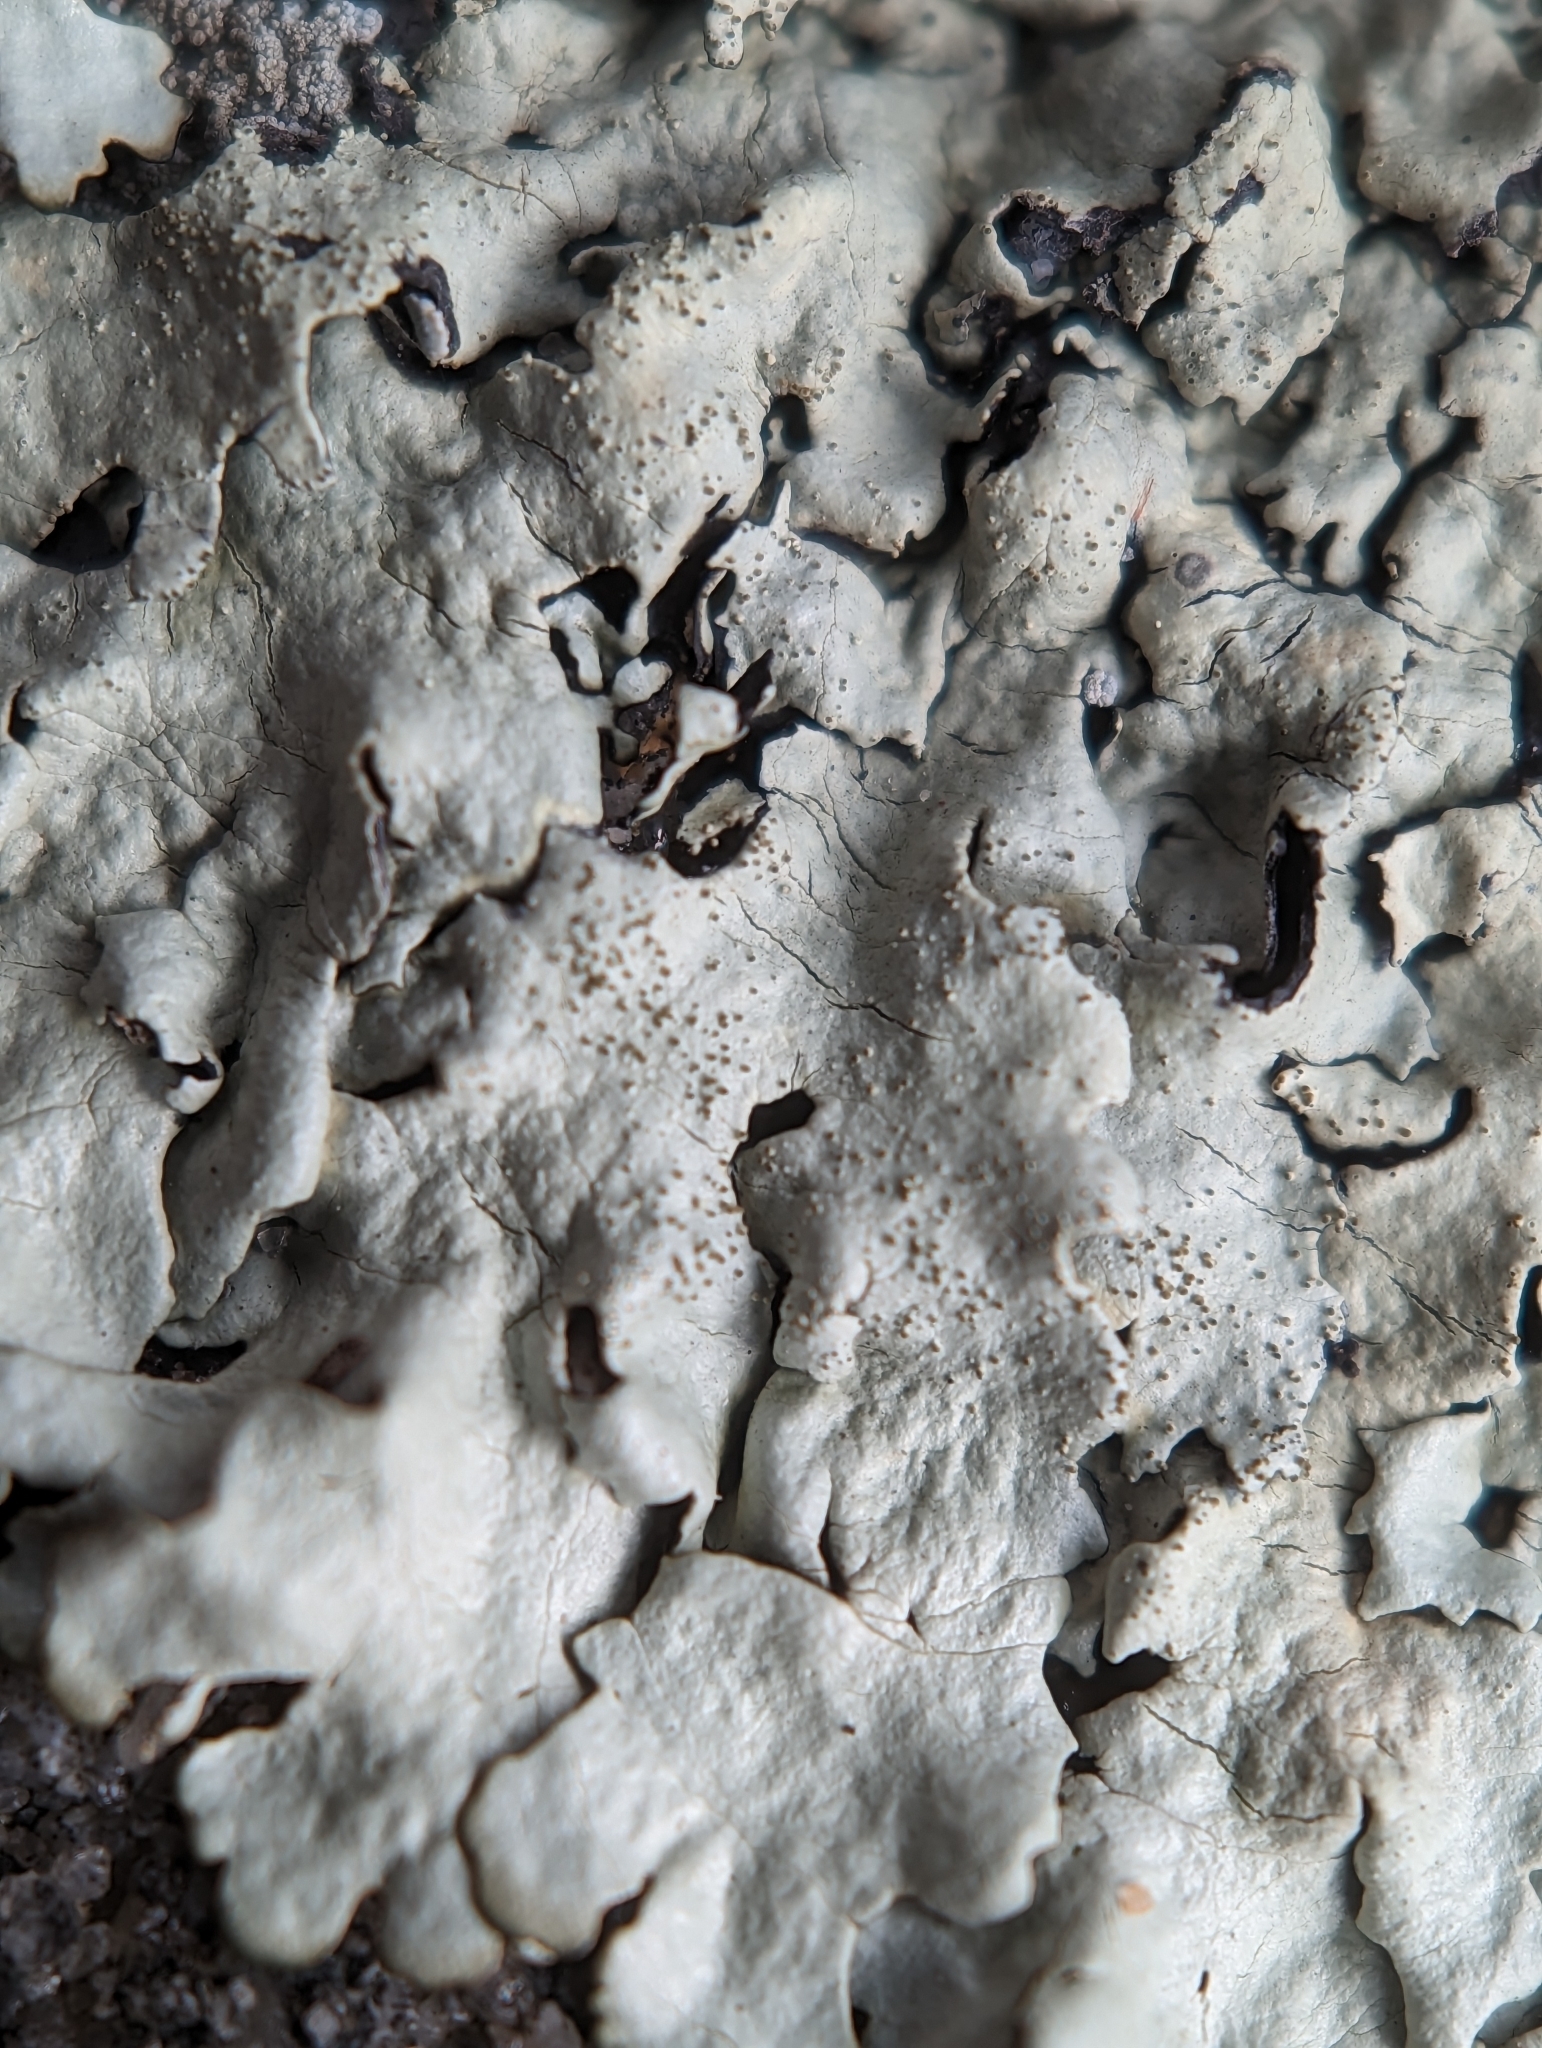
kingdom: Fungi
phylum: Ascomycota
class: Lecanoromycetes
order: Lecanorales
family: Parmeliaceae
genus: Xanthoparmelia
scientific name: Xanthoparmelia conspersa
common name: Peppered rock shield
